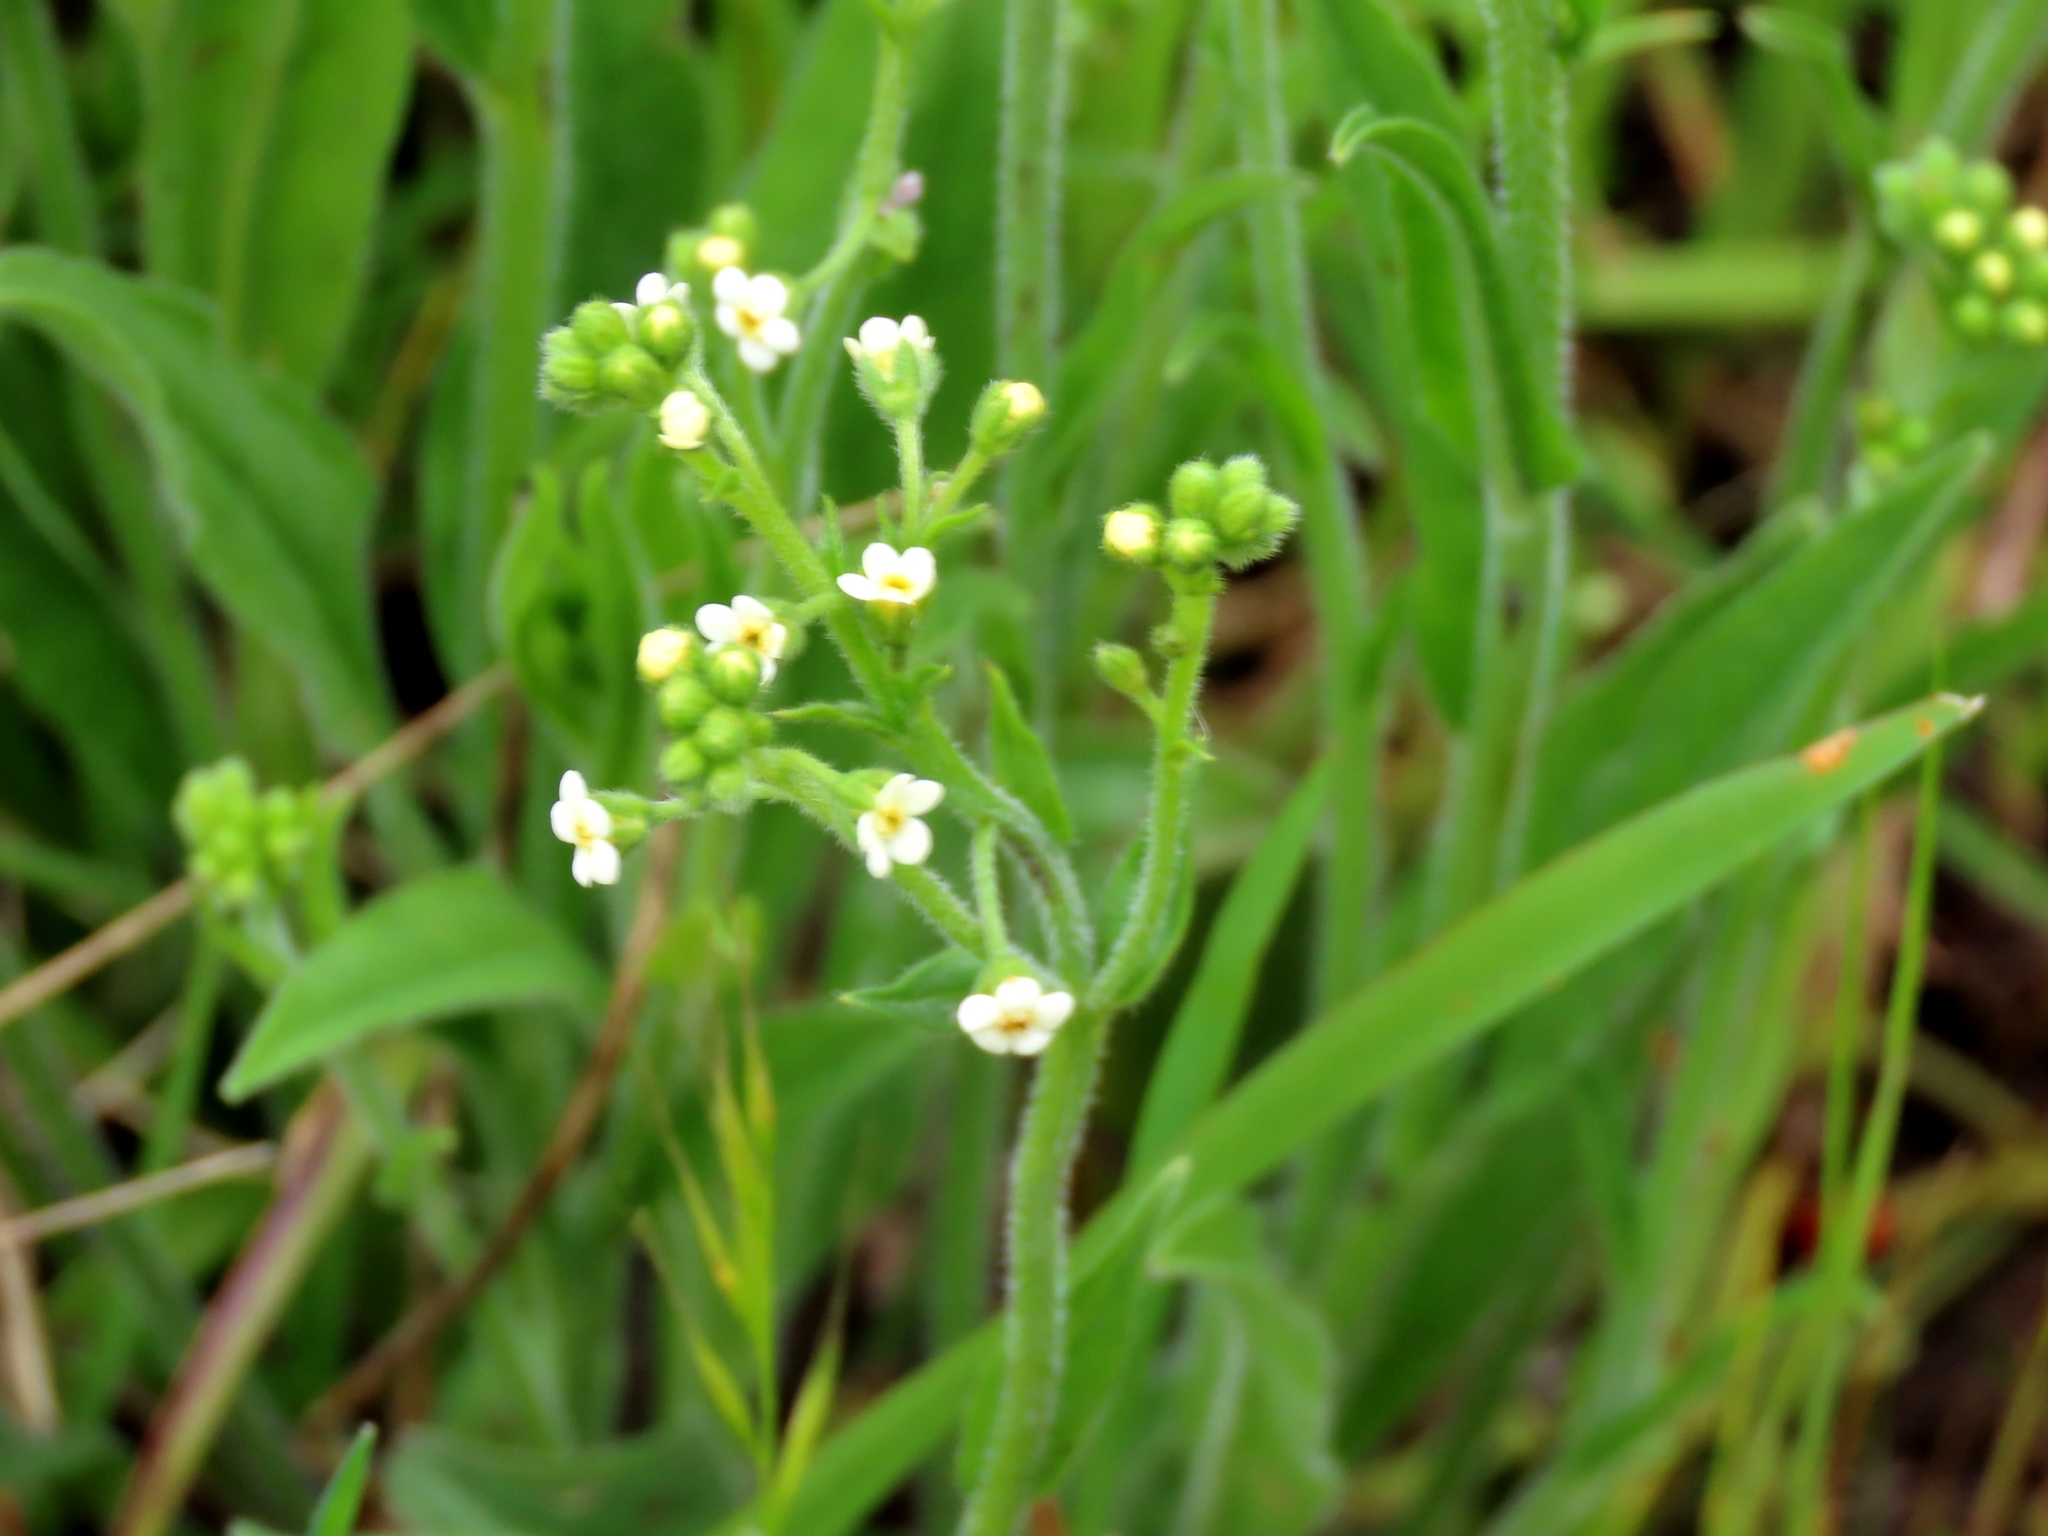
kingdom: Plantae
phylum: Tracheophyta
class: Magnoliopsida
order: Boraginales
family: Boraginaceae
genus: Hackelia
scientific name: Hackelia suaveolens
